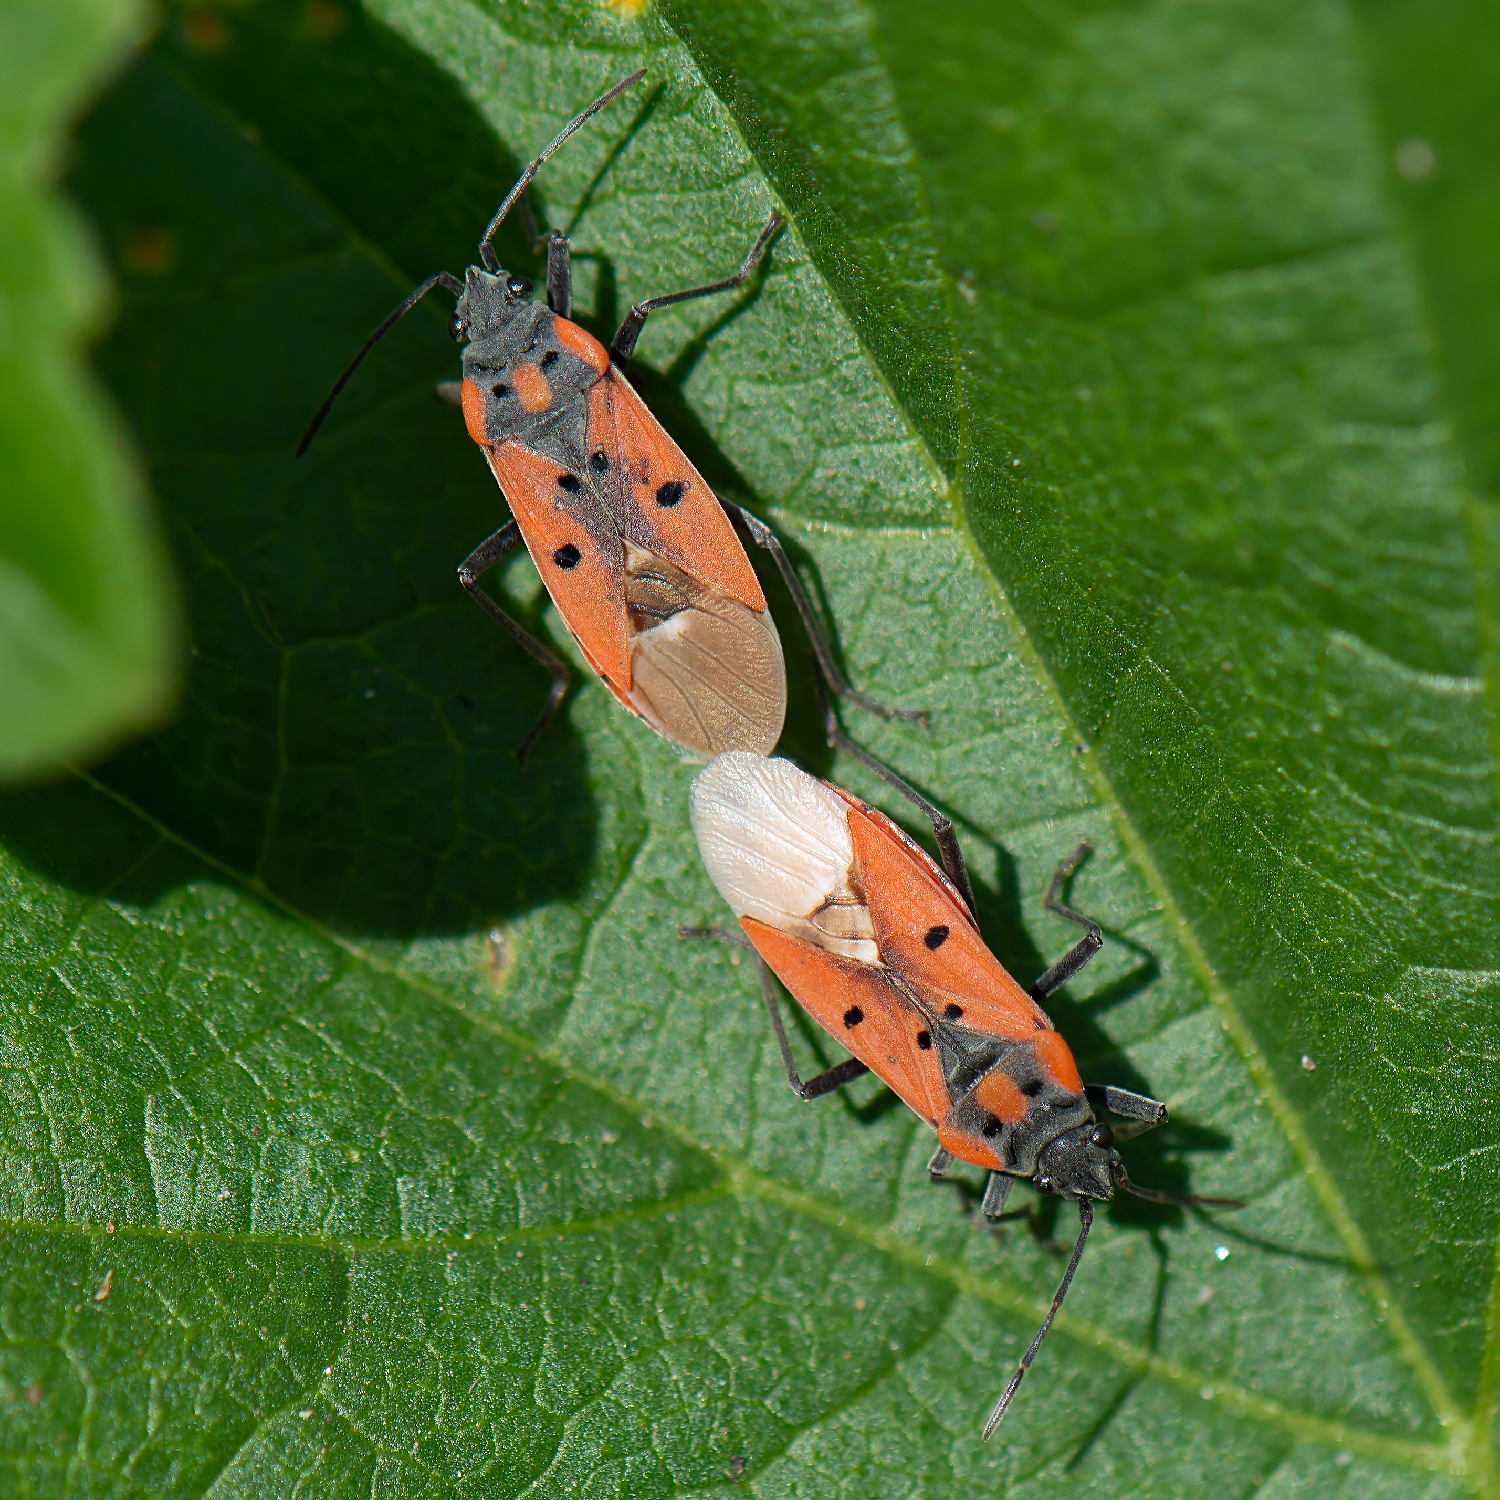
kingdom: Animalia
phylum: Arthropoda
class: Insecta
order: Hemiptera
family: Lygaeidae
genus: Lygaeus
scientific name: Lygaeus creticus
